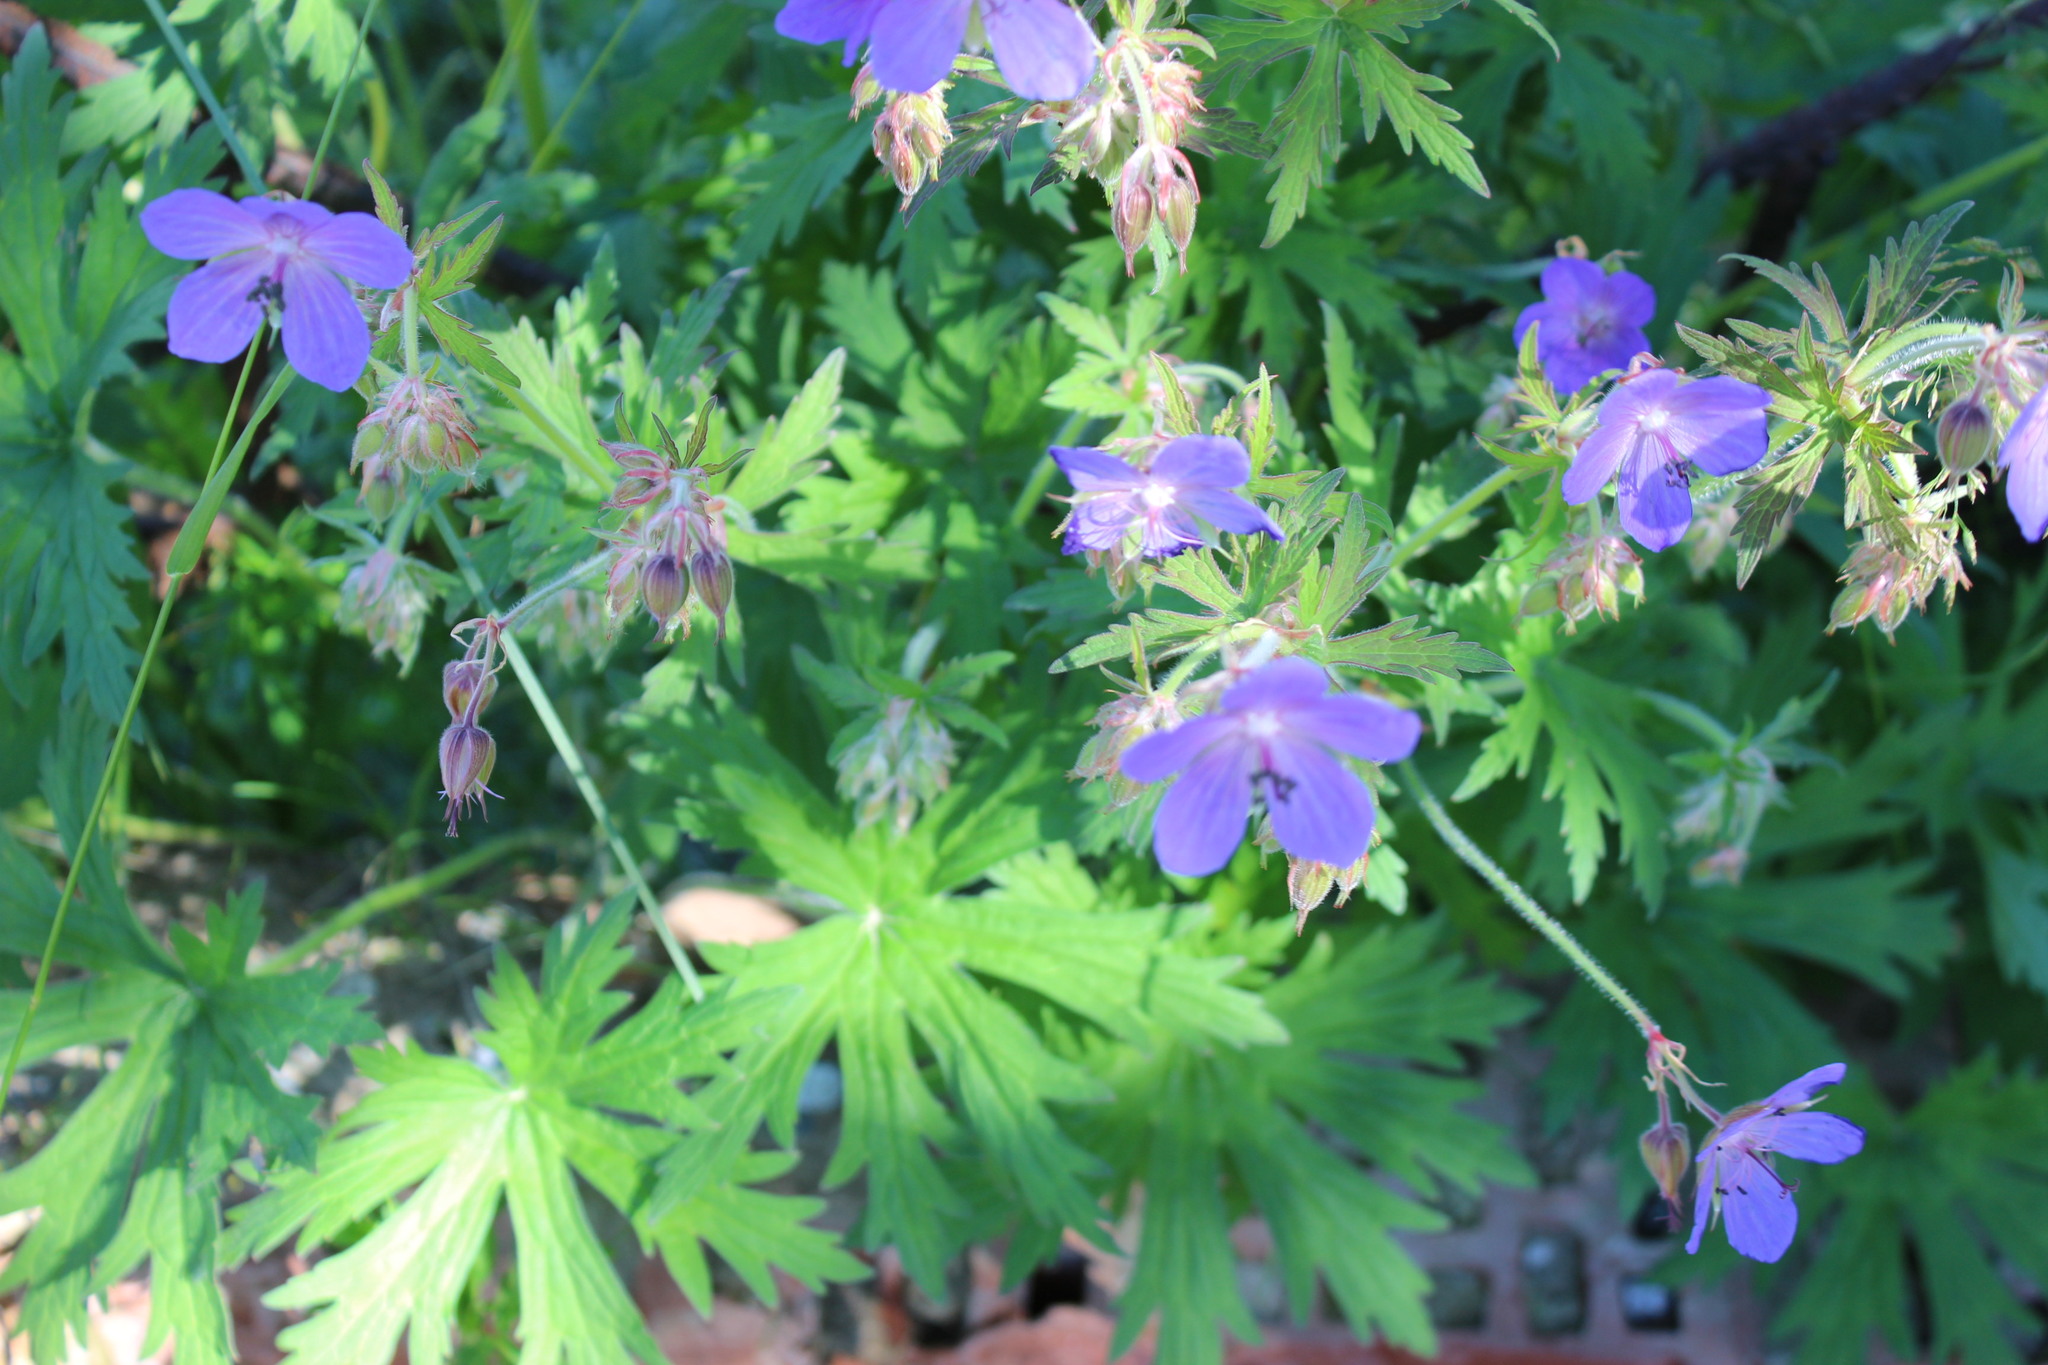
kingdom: Plantae
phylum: Tracheophyta
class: Magnoliopsida
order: Geraniales
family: Geraniaceae
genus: Geranium
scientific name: Geranium pratense
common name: Meadow crane's-bill
